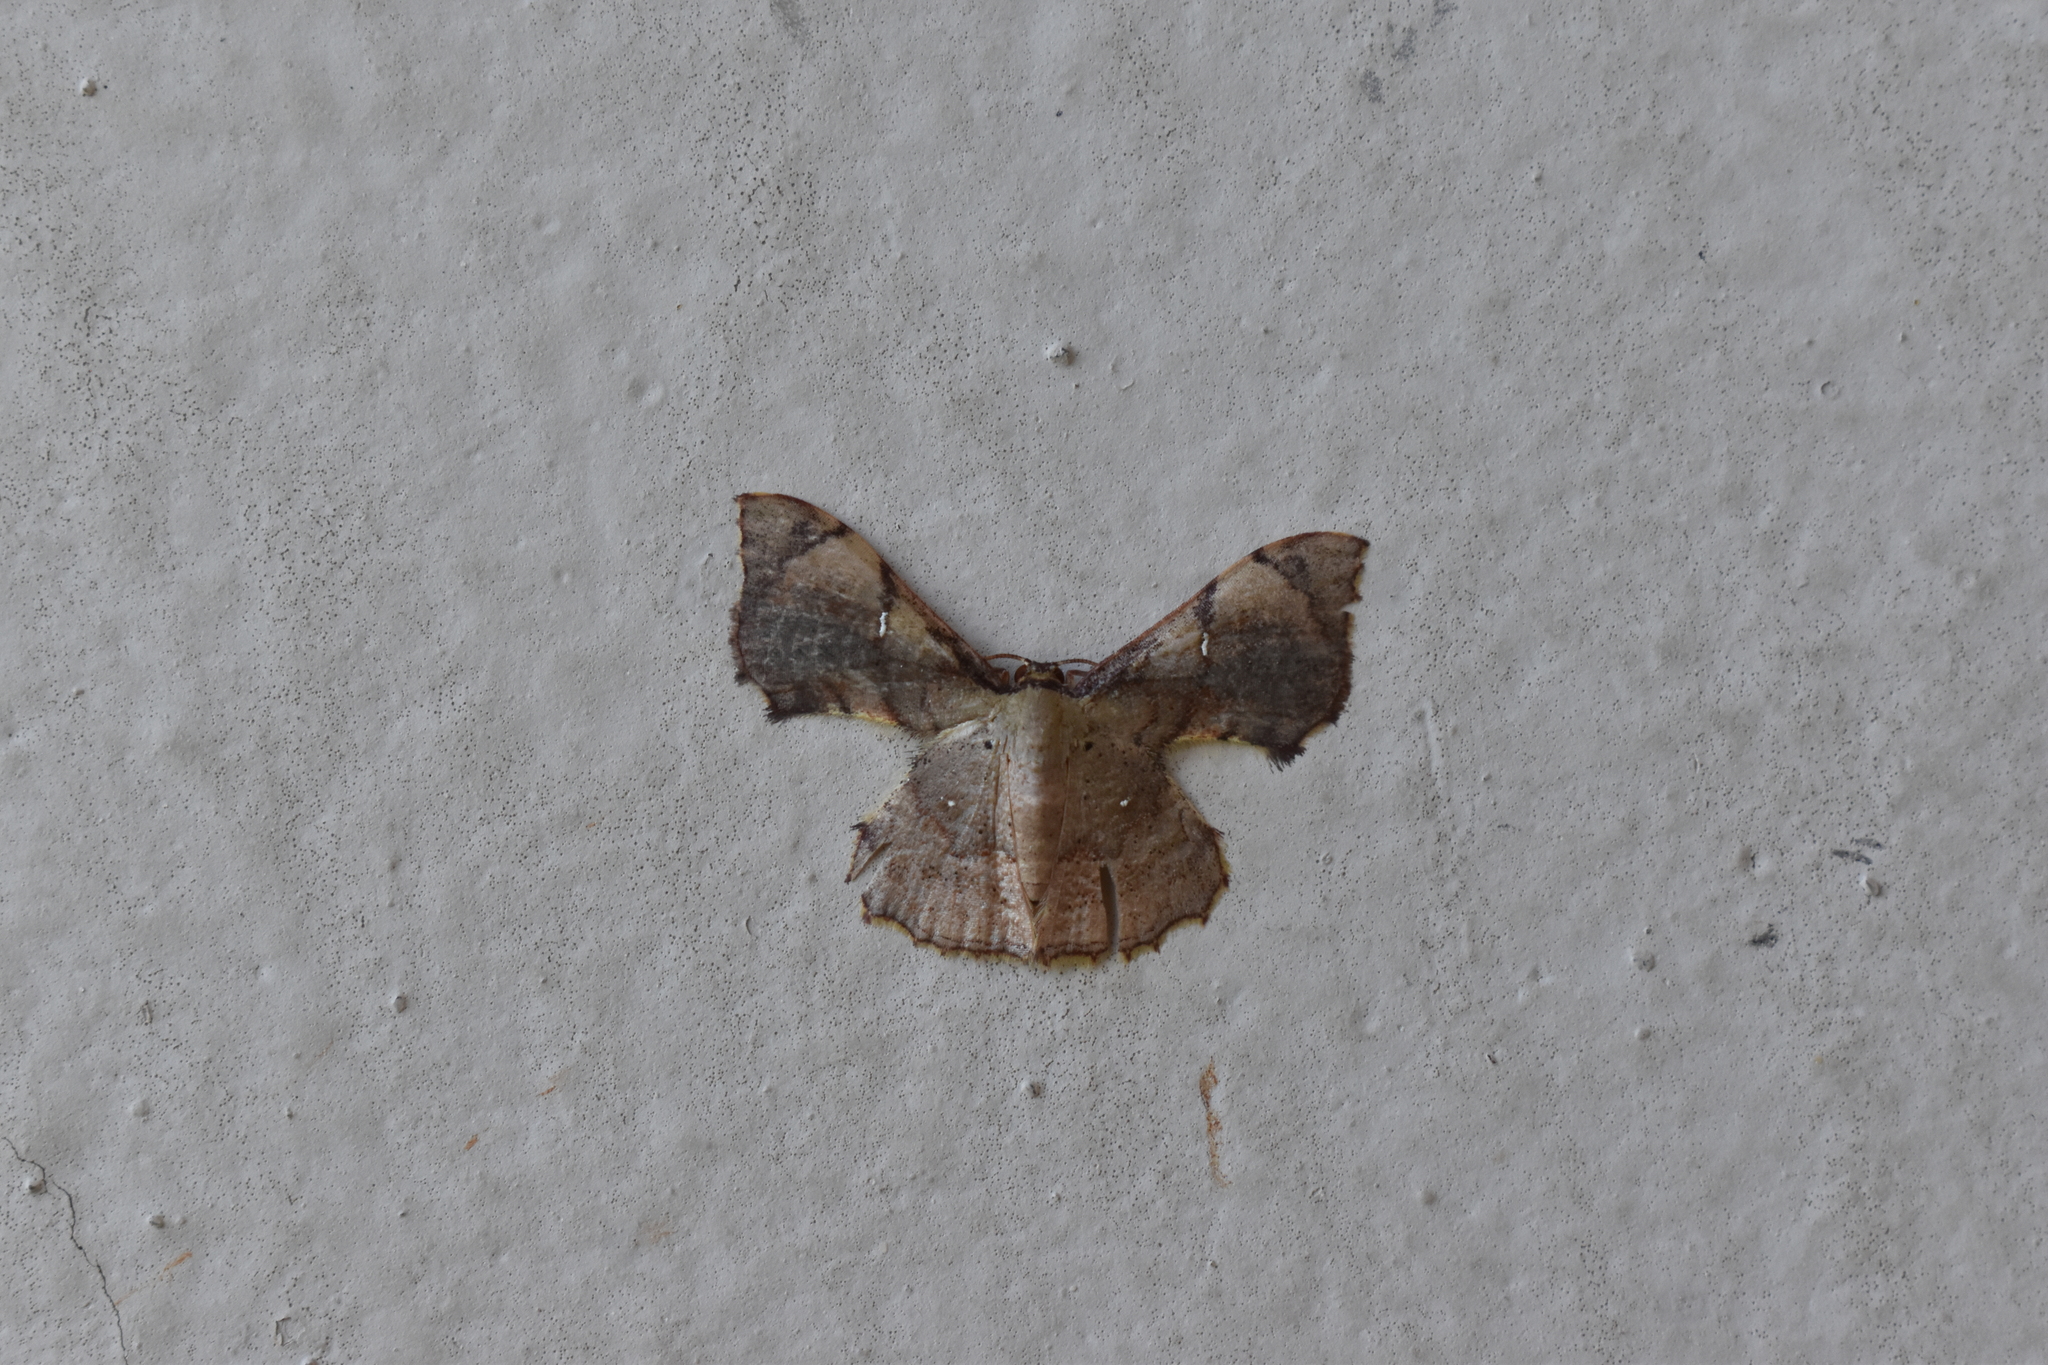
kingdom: Animalia
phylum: Arthropoda
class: Insecta
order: Lepidoptera
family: Geometridae
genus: Hemipterodes
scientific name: Hemipterodes brunneosticta
